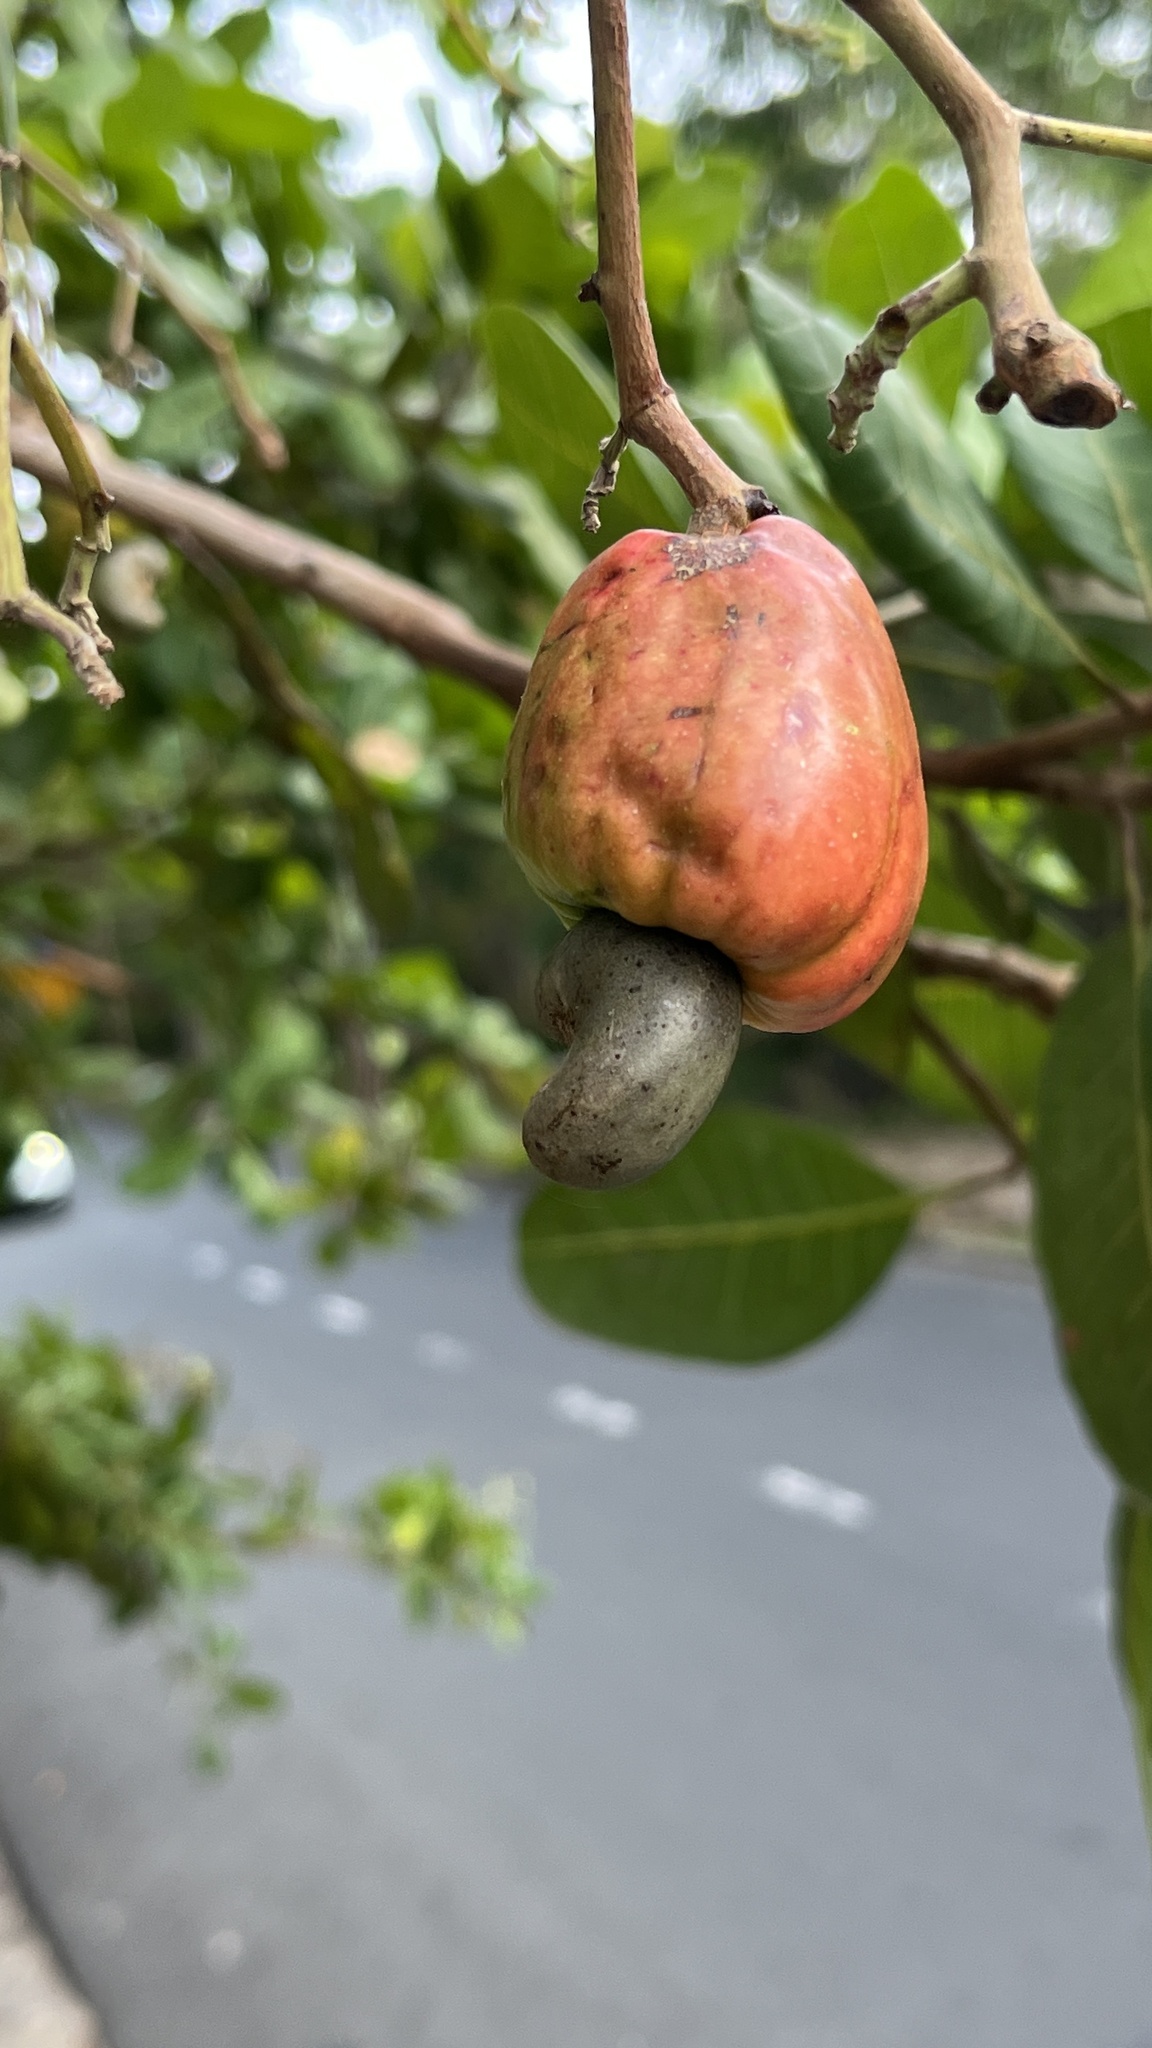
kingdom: Plantae
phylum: Tracheophyta
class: Magnoliopsida
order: Sapindales
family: Anacardiaceae
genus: Anacardium
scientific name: Anacardium occidentale
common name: Cashew
